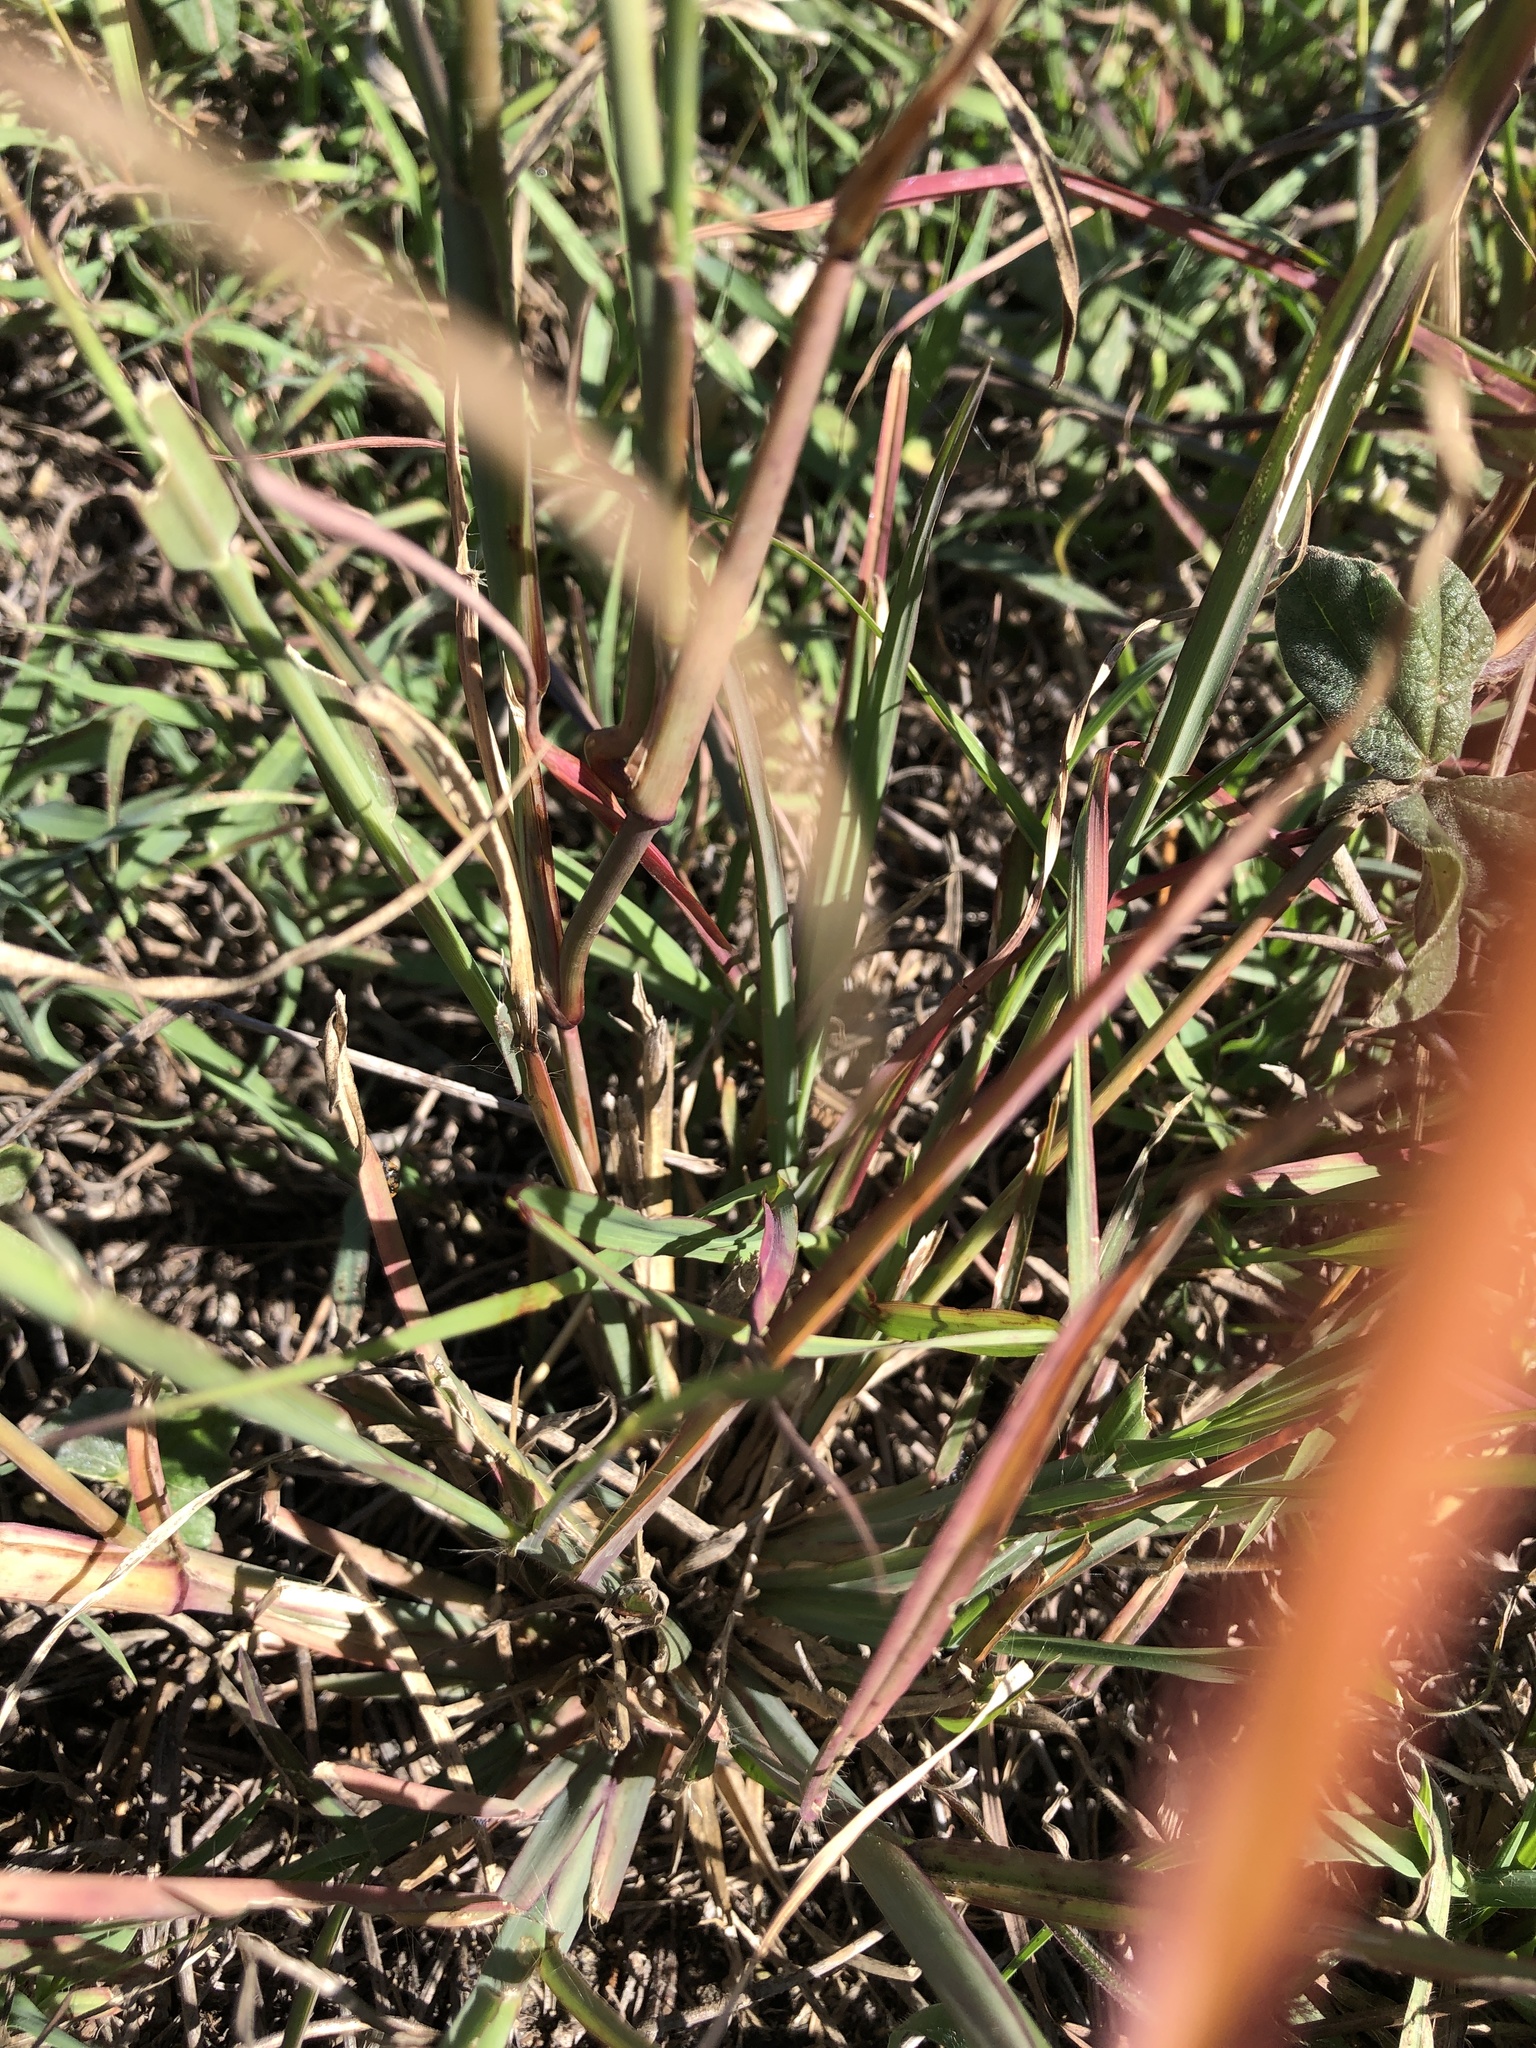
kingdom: Plantae
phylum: Tracheophyta
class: Liliopsida
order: Poales
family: Poaceae
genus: Chloris
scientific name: Chloris barbata
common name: Swollen fingergrass
